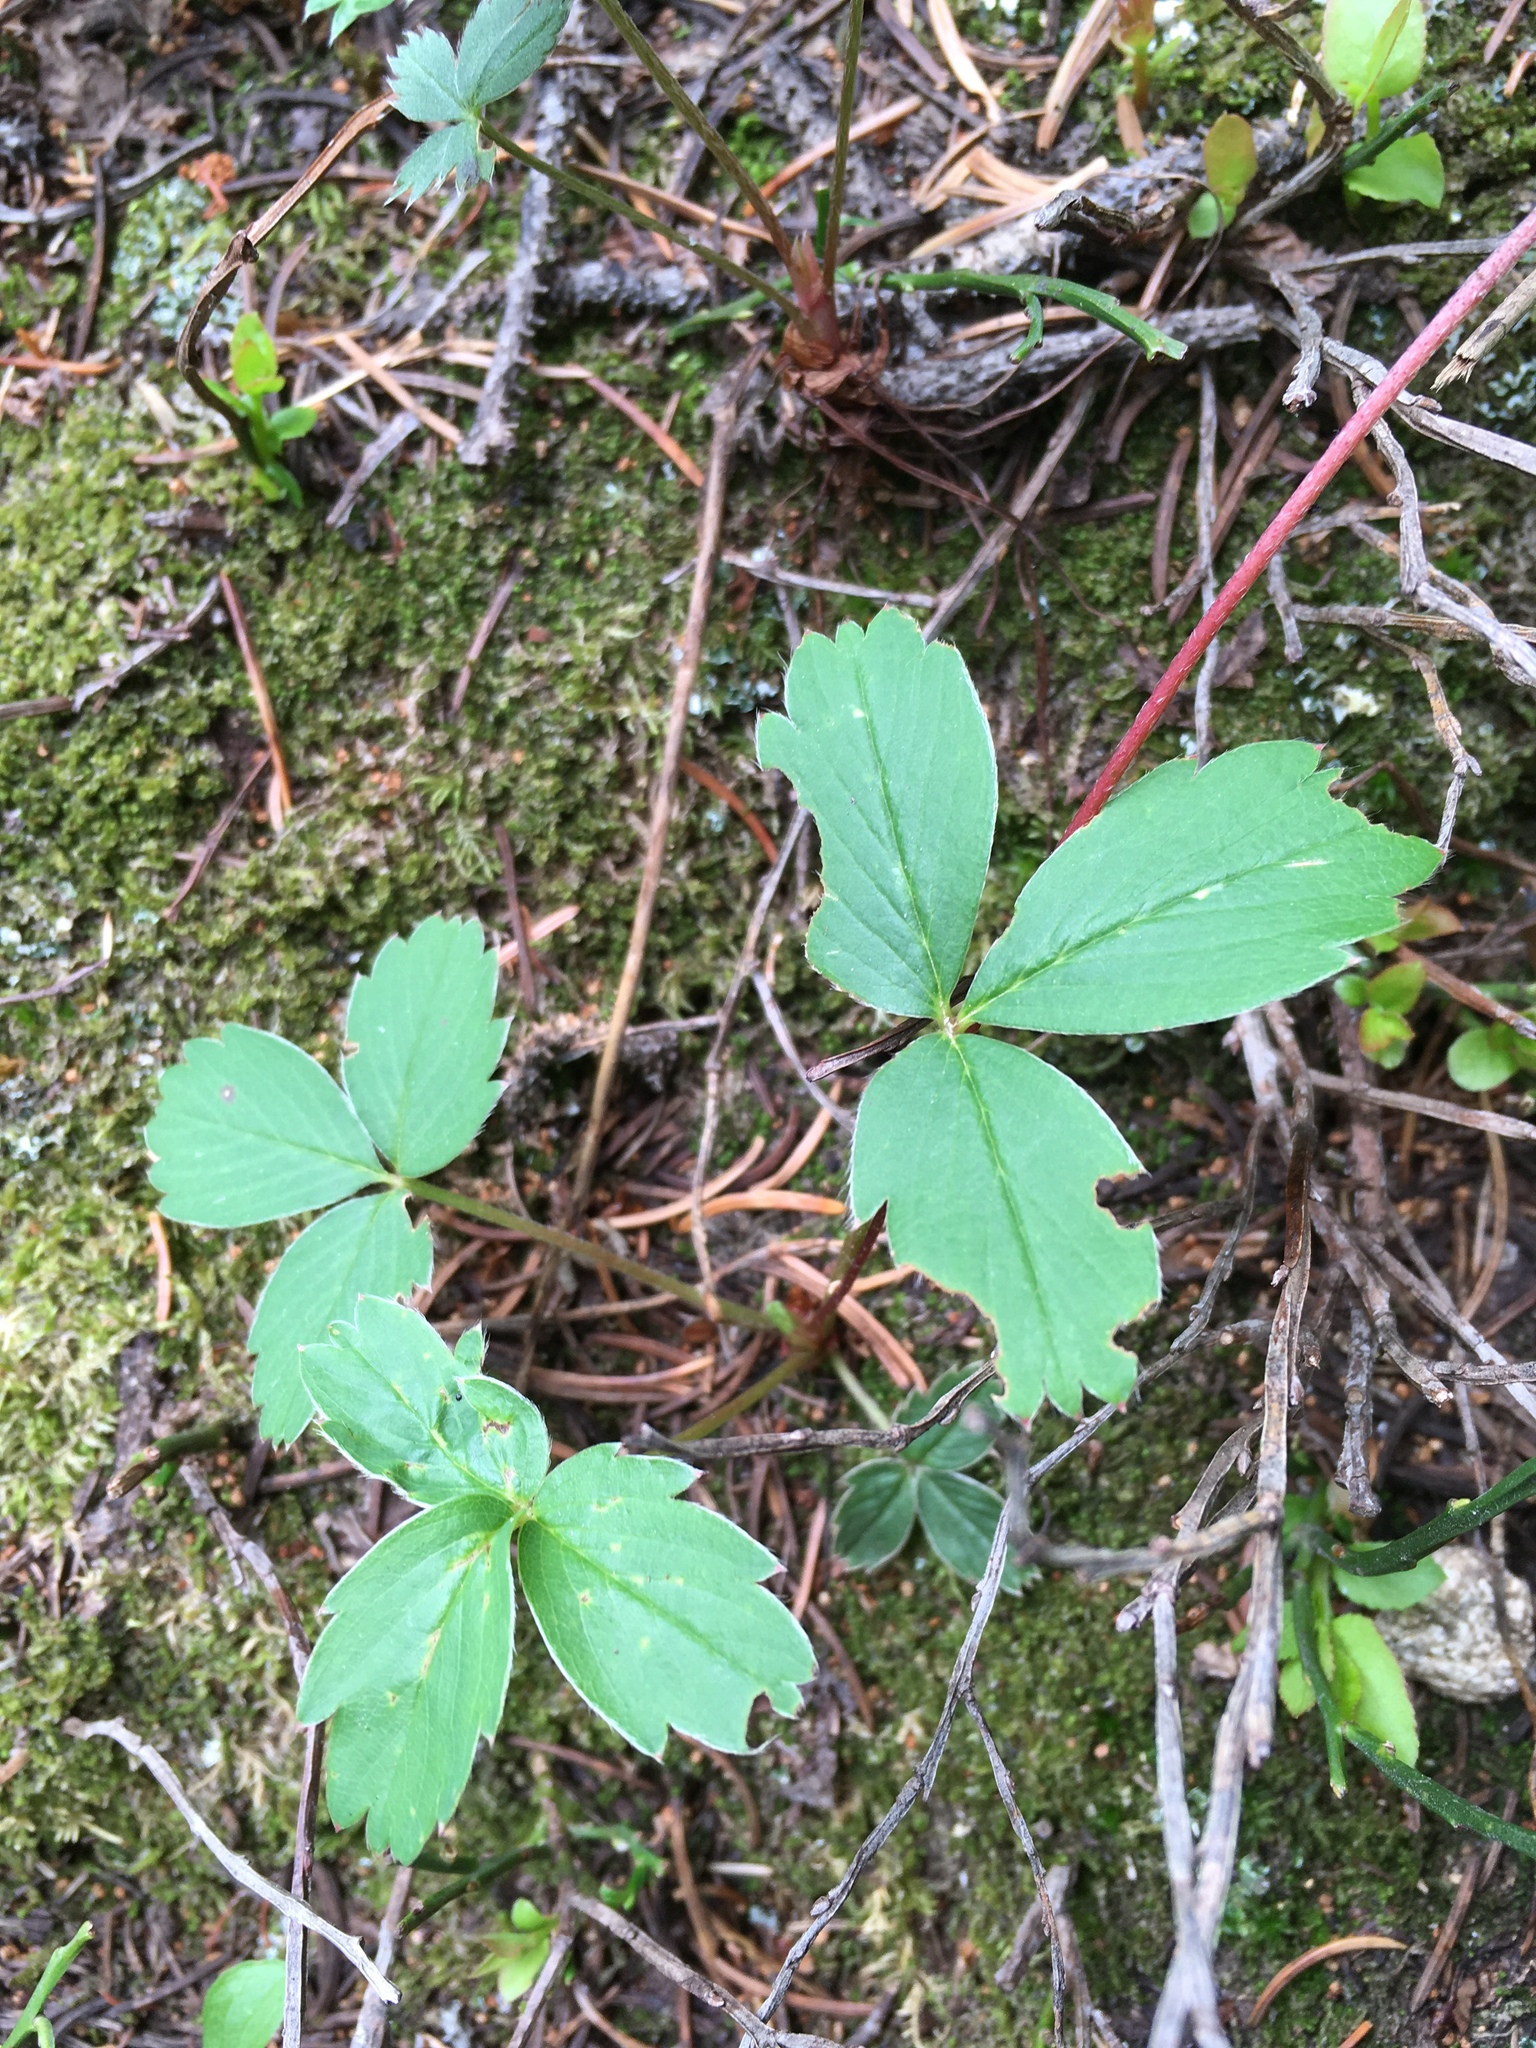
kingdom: Plantae
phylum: Tracheophyta
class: Magnoliopsida
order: Rosales
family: Rosaceae
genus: Fragaria
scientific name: Fragaria virginiana
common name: Thickleaved wild strawberry
